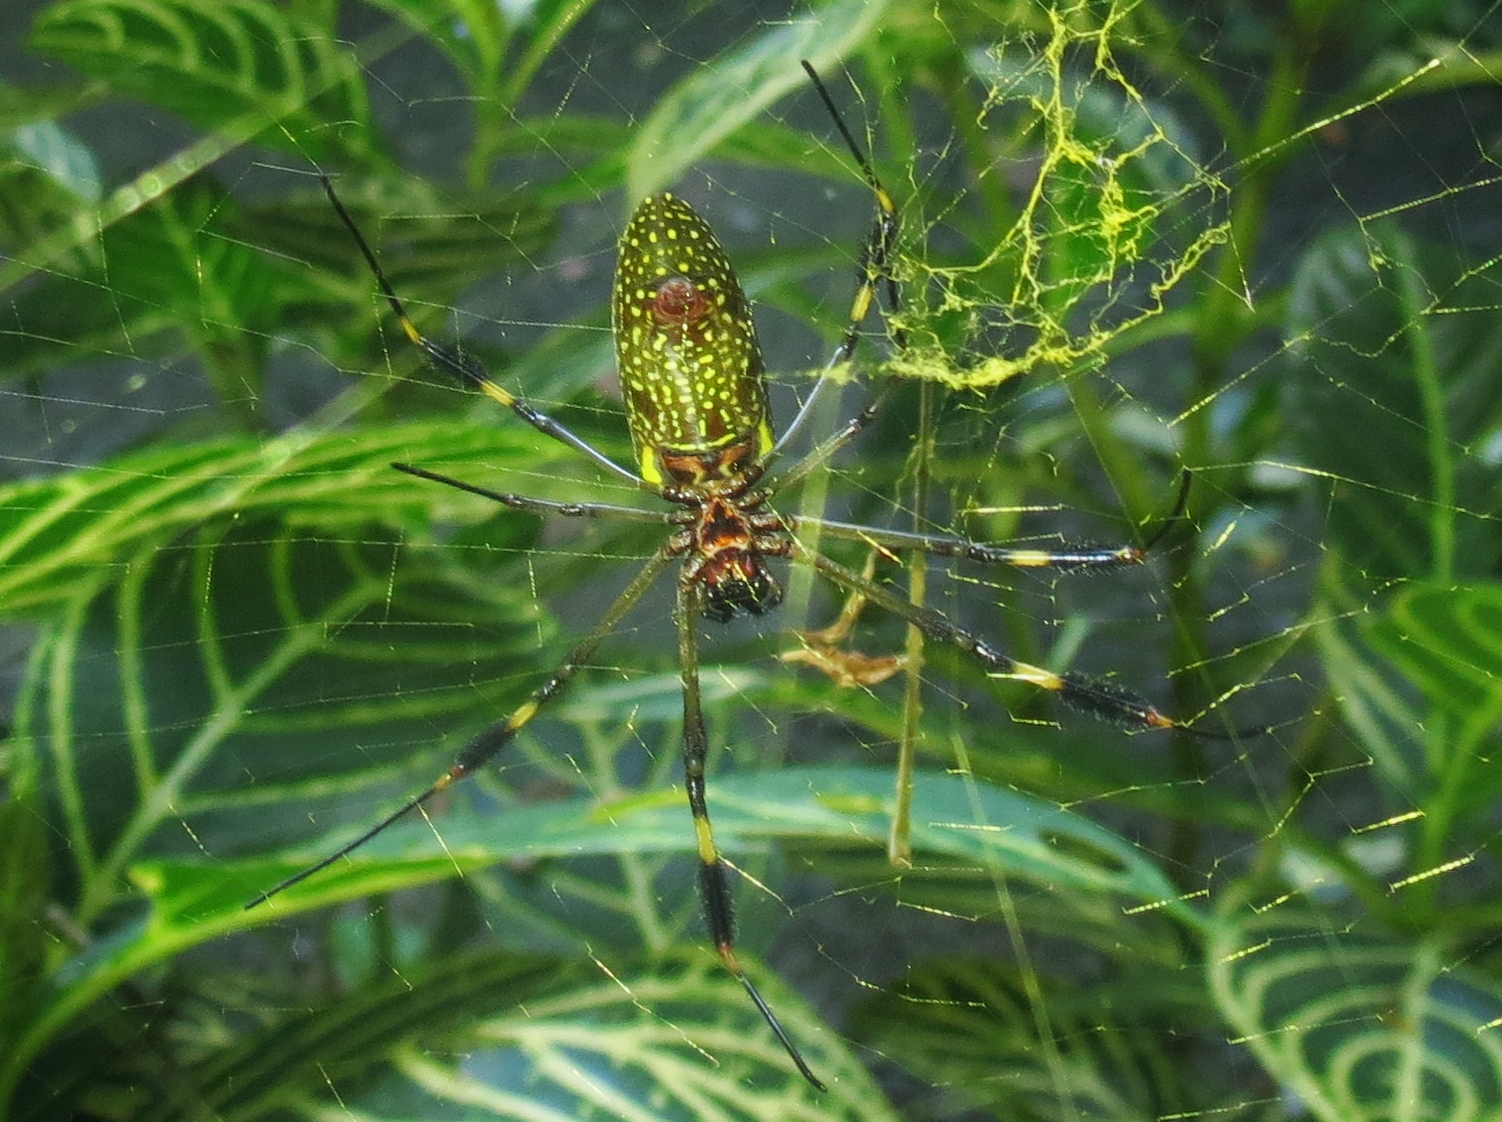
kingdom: Animalia
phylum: Arthropoda
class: Arachnida
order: Araneae
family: Araneidae
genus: Trichonephila
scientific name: Trichonephila clavipes
